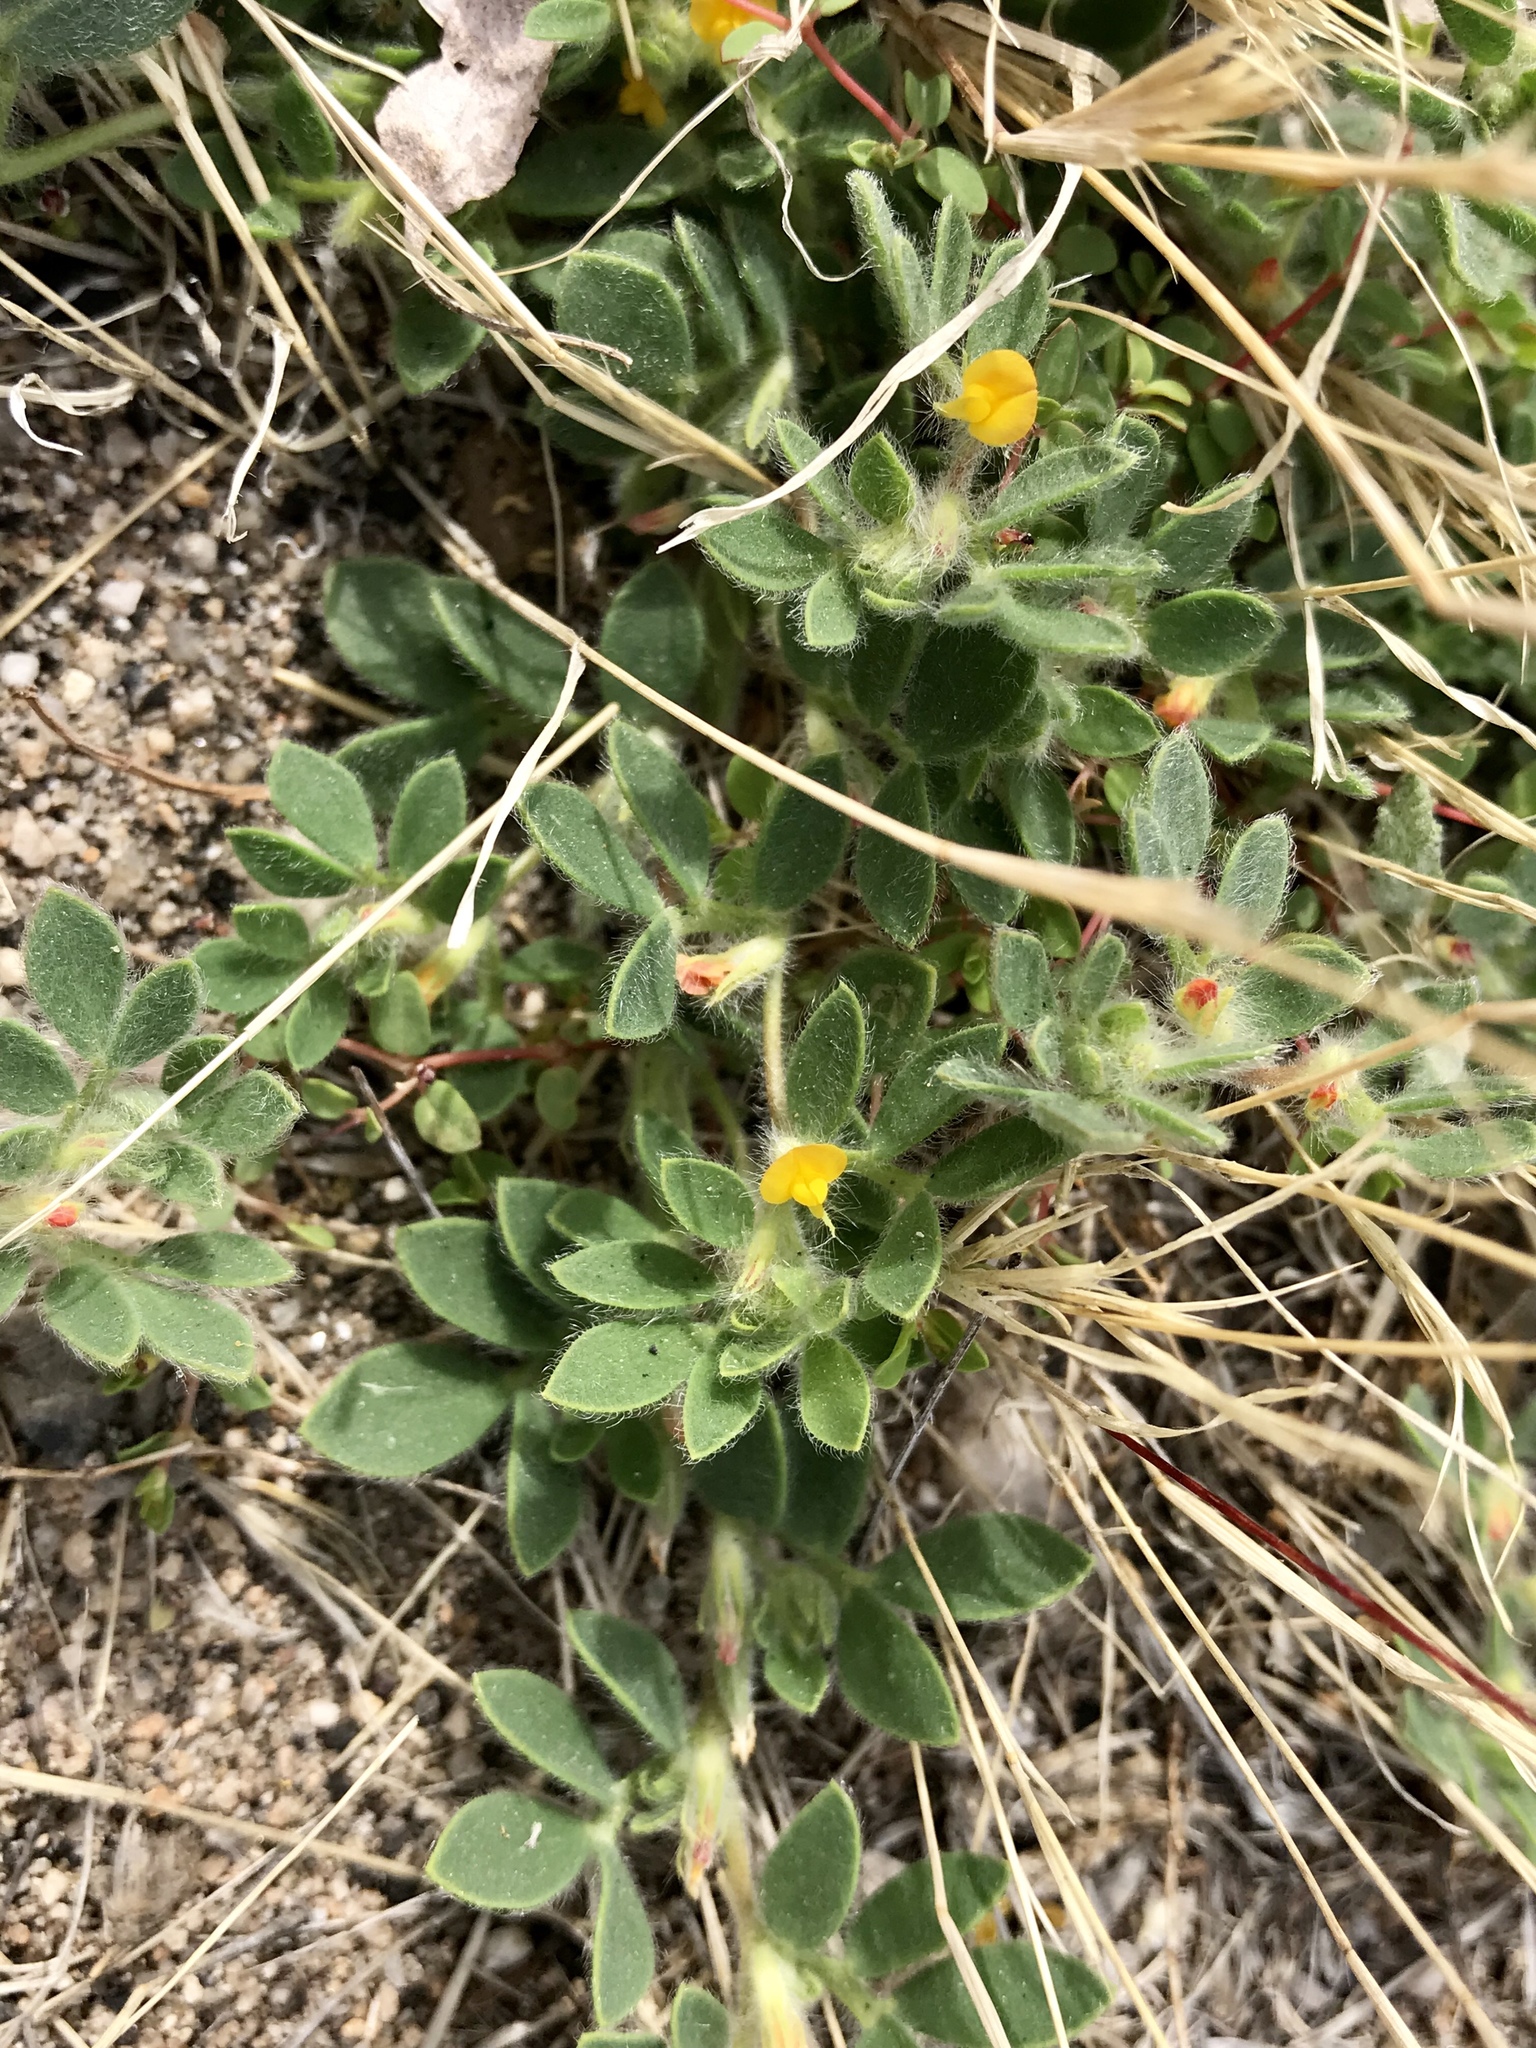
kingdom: Plantae
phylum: Tracheophyta
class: Magnoliopsida
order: Fabales
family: Fabaceae
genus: Acmispon
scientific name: Acmispon brachycarpus
